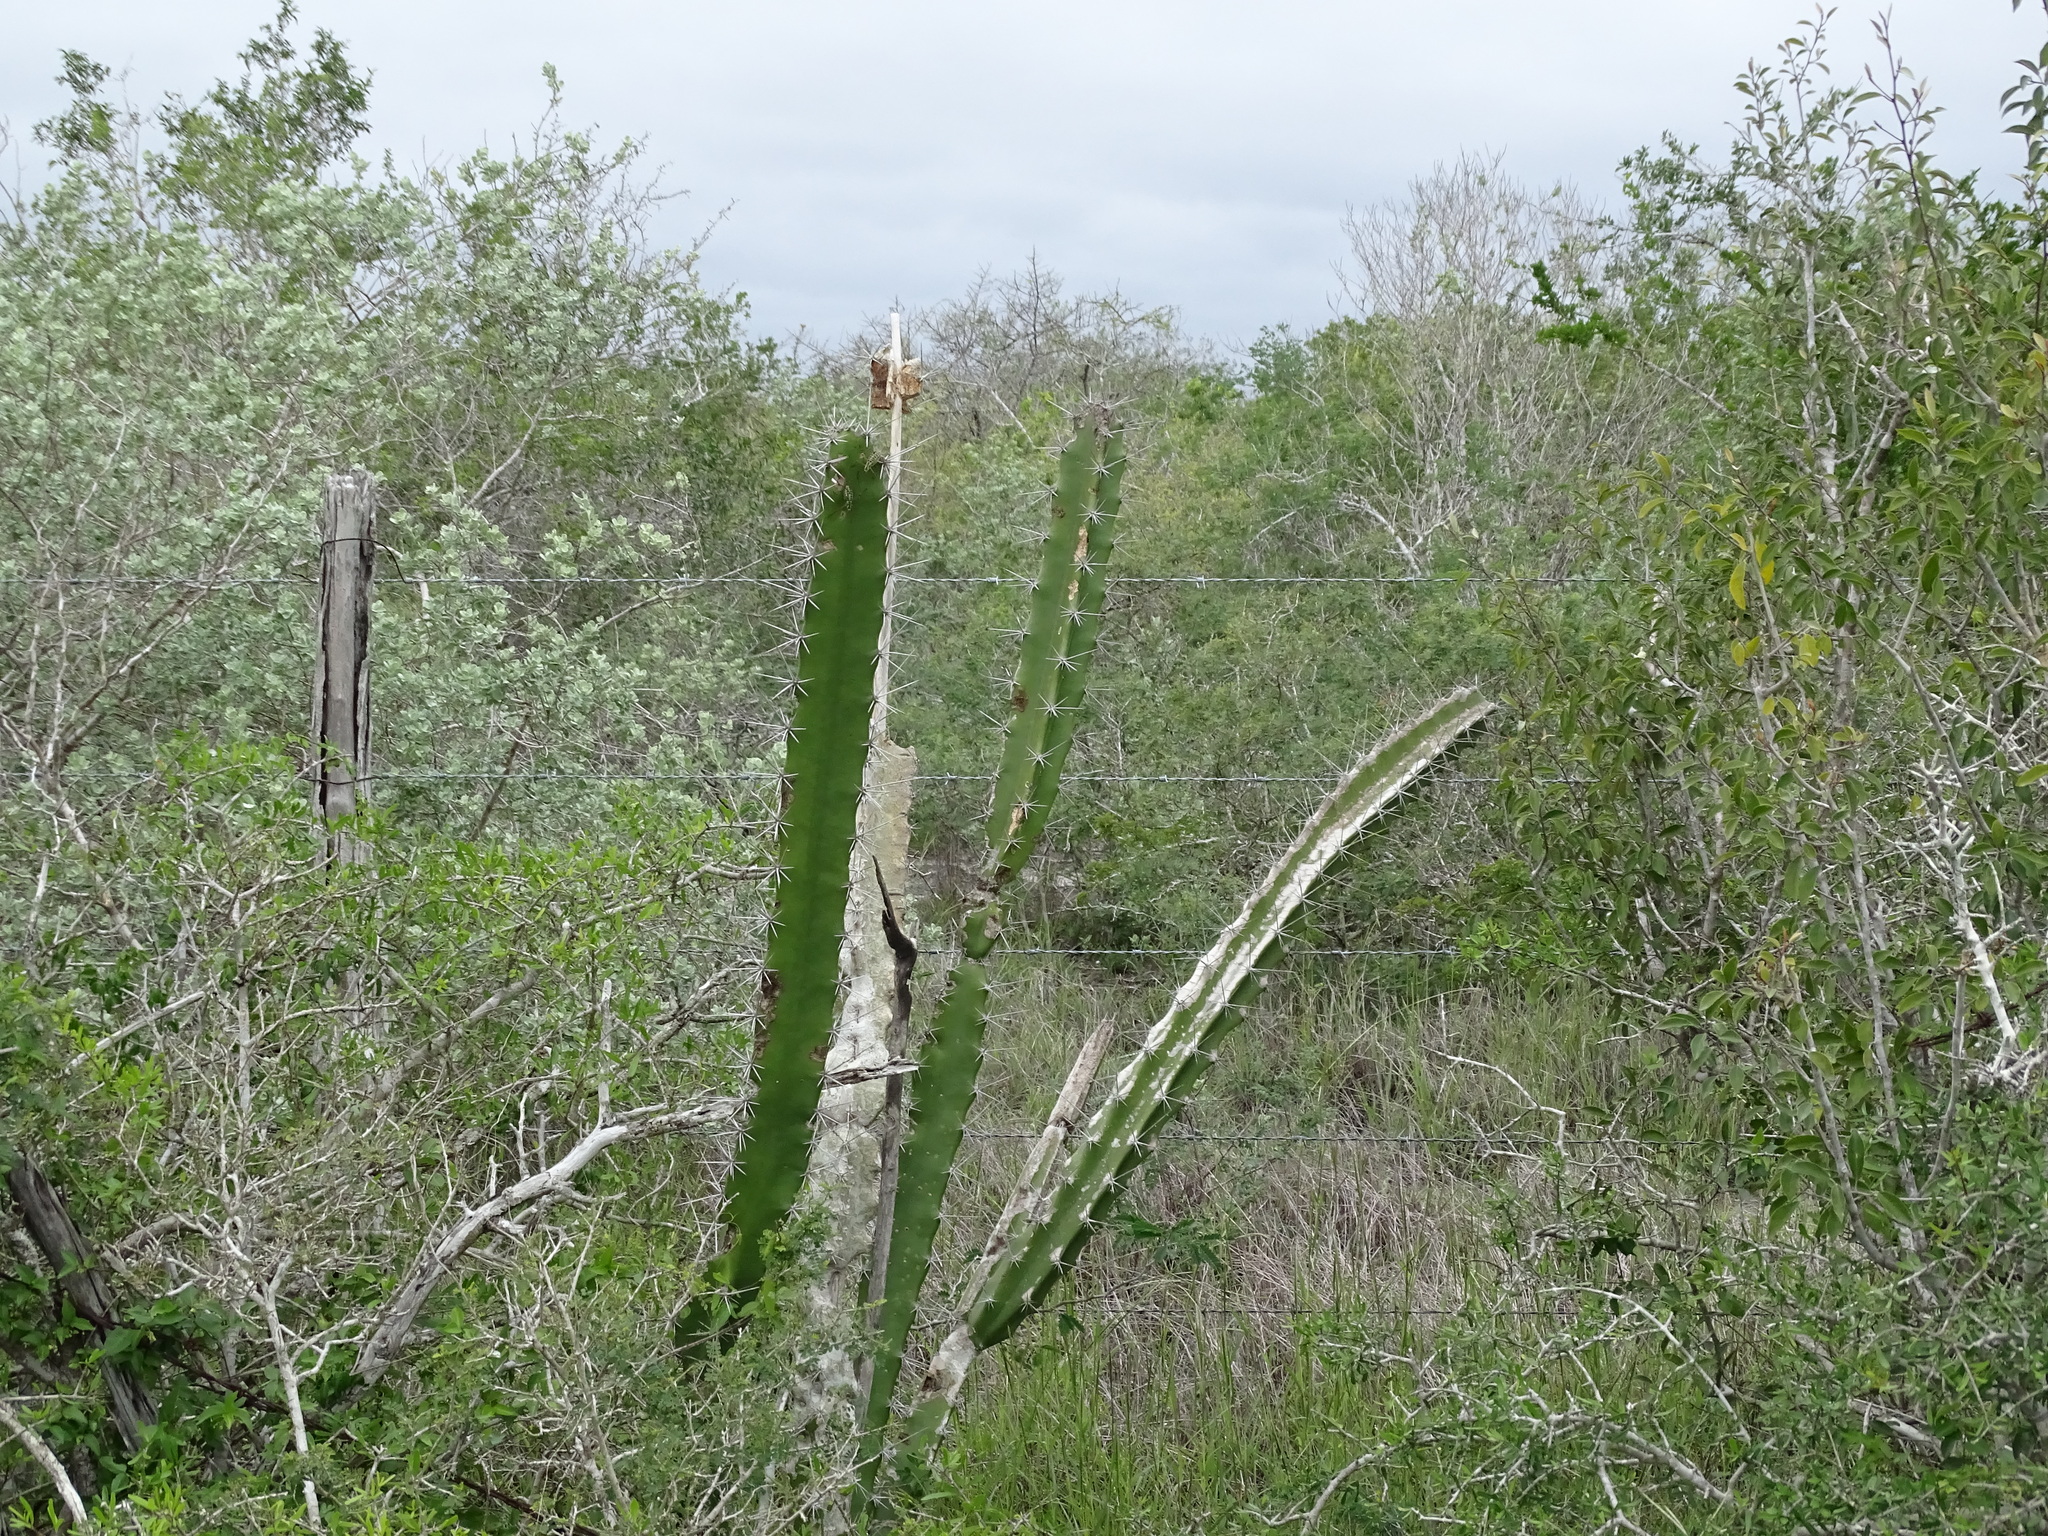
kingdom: Plantae
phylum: Tracheophyta
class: Magnoliopsida
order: Caryophyllales
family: Cactaceae
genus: Acanthocereus
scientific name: Acanthocereus tetragonus
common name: Triangle cactus
